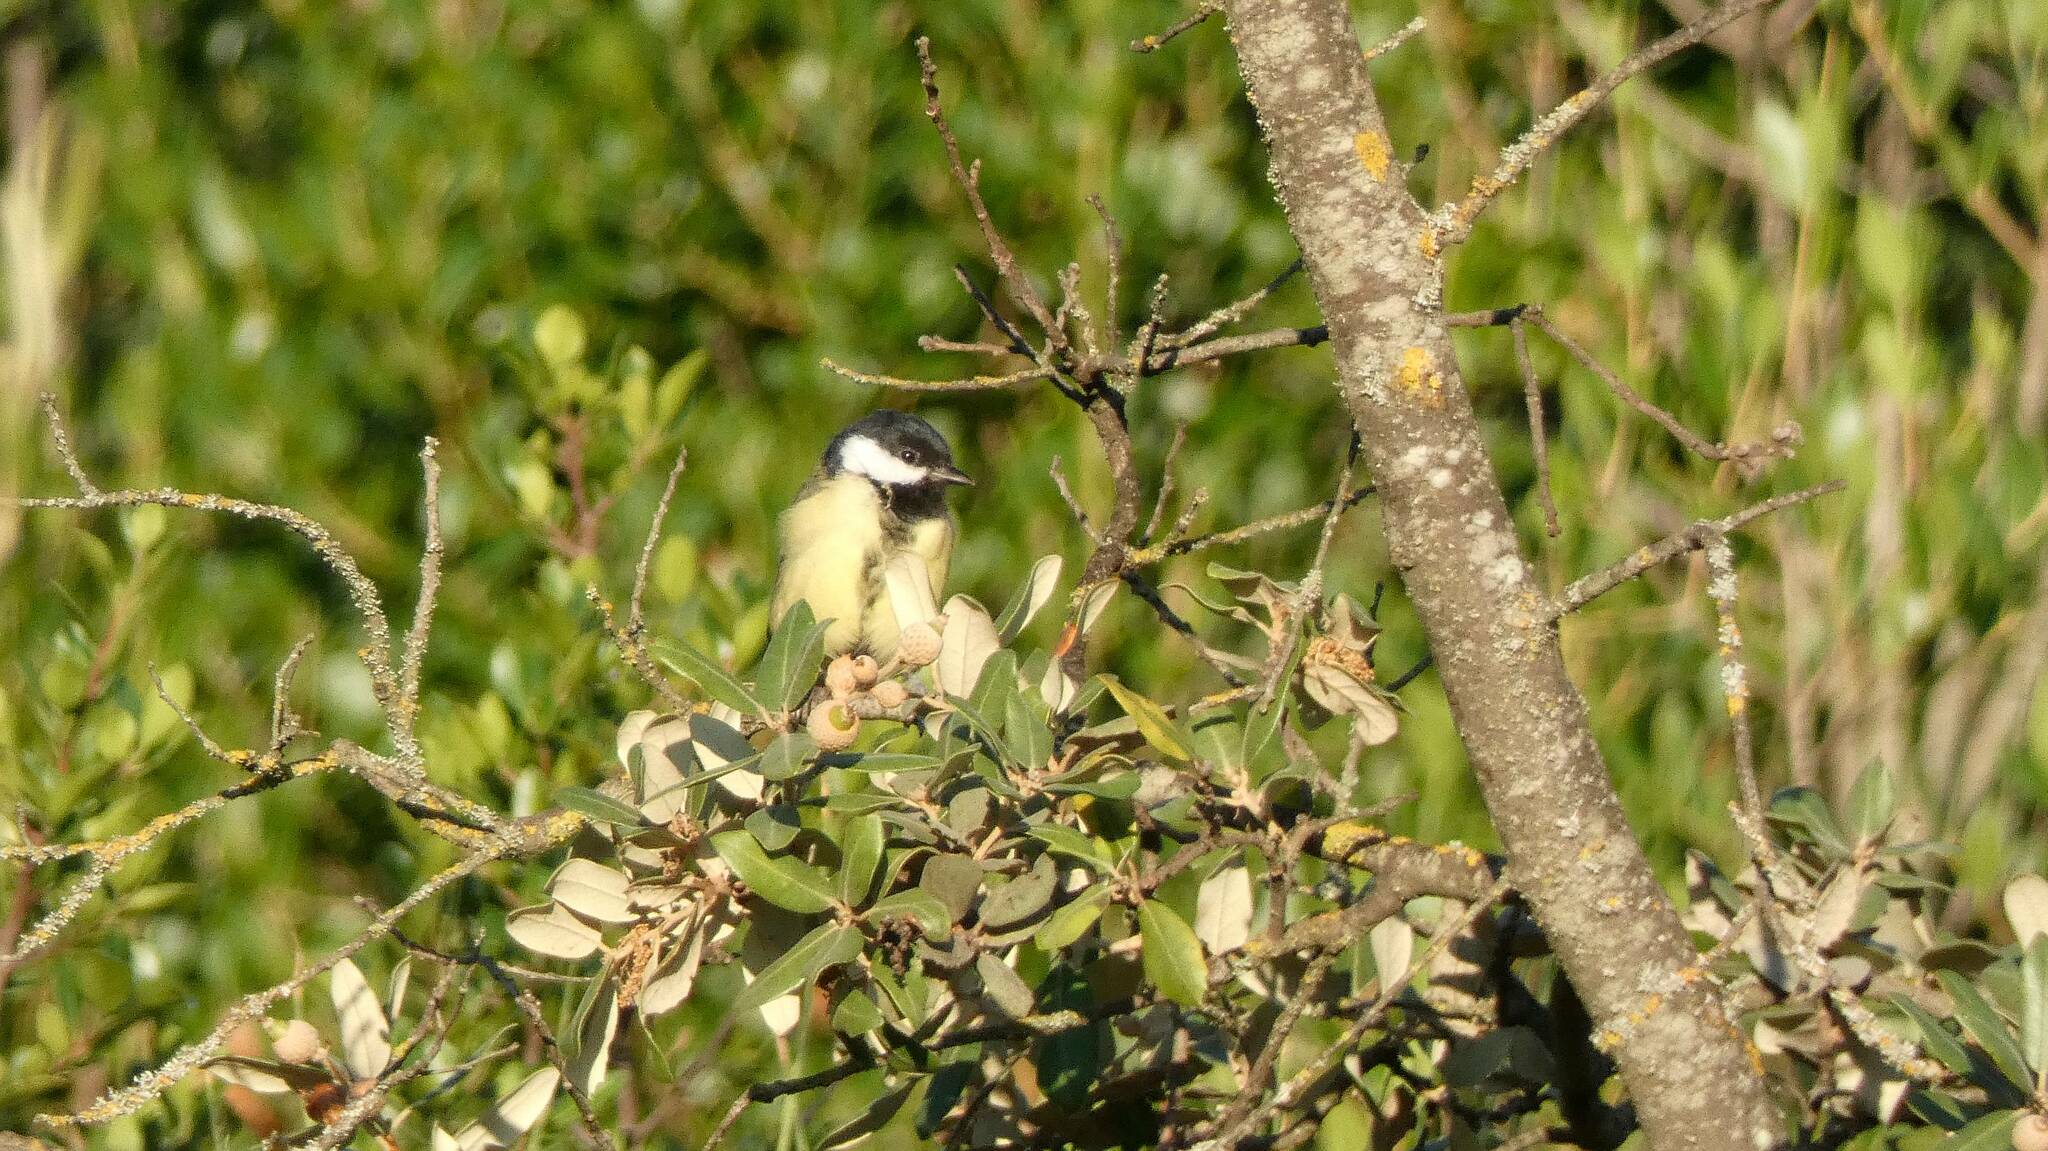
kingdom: Animalia
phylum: Chordata
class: Aves
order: Passeriformes
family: Paridae
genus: Parus
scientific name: Parus major
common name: Great tit
